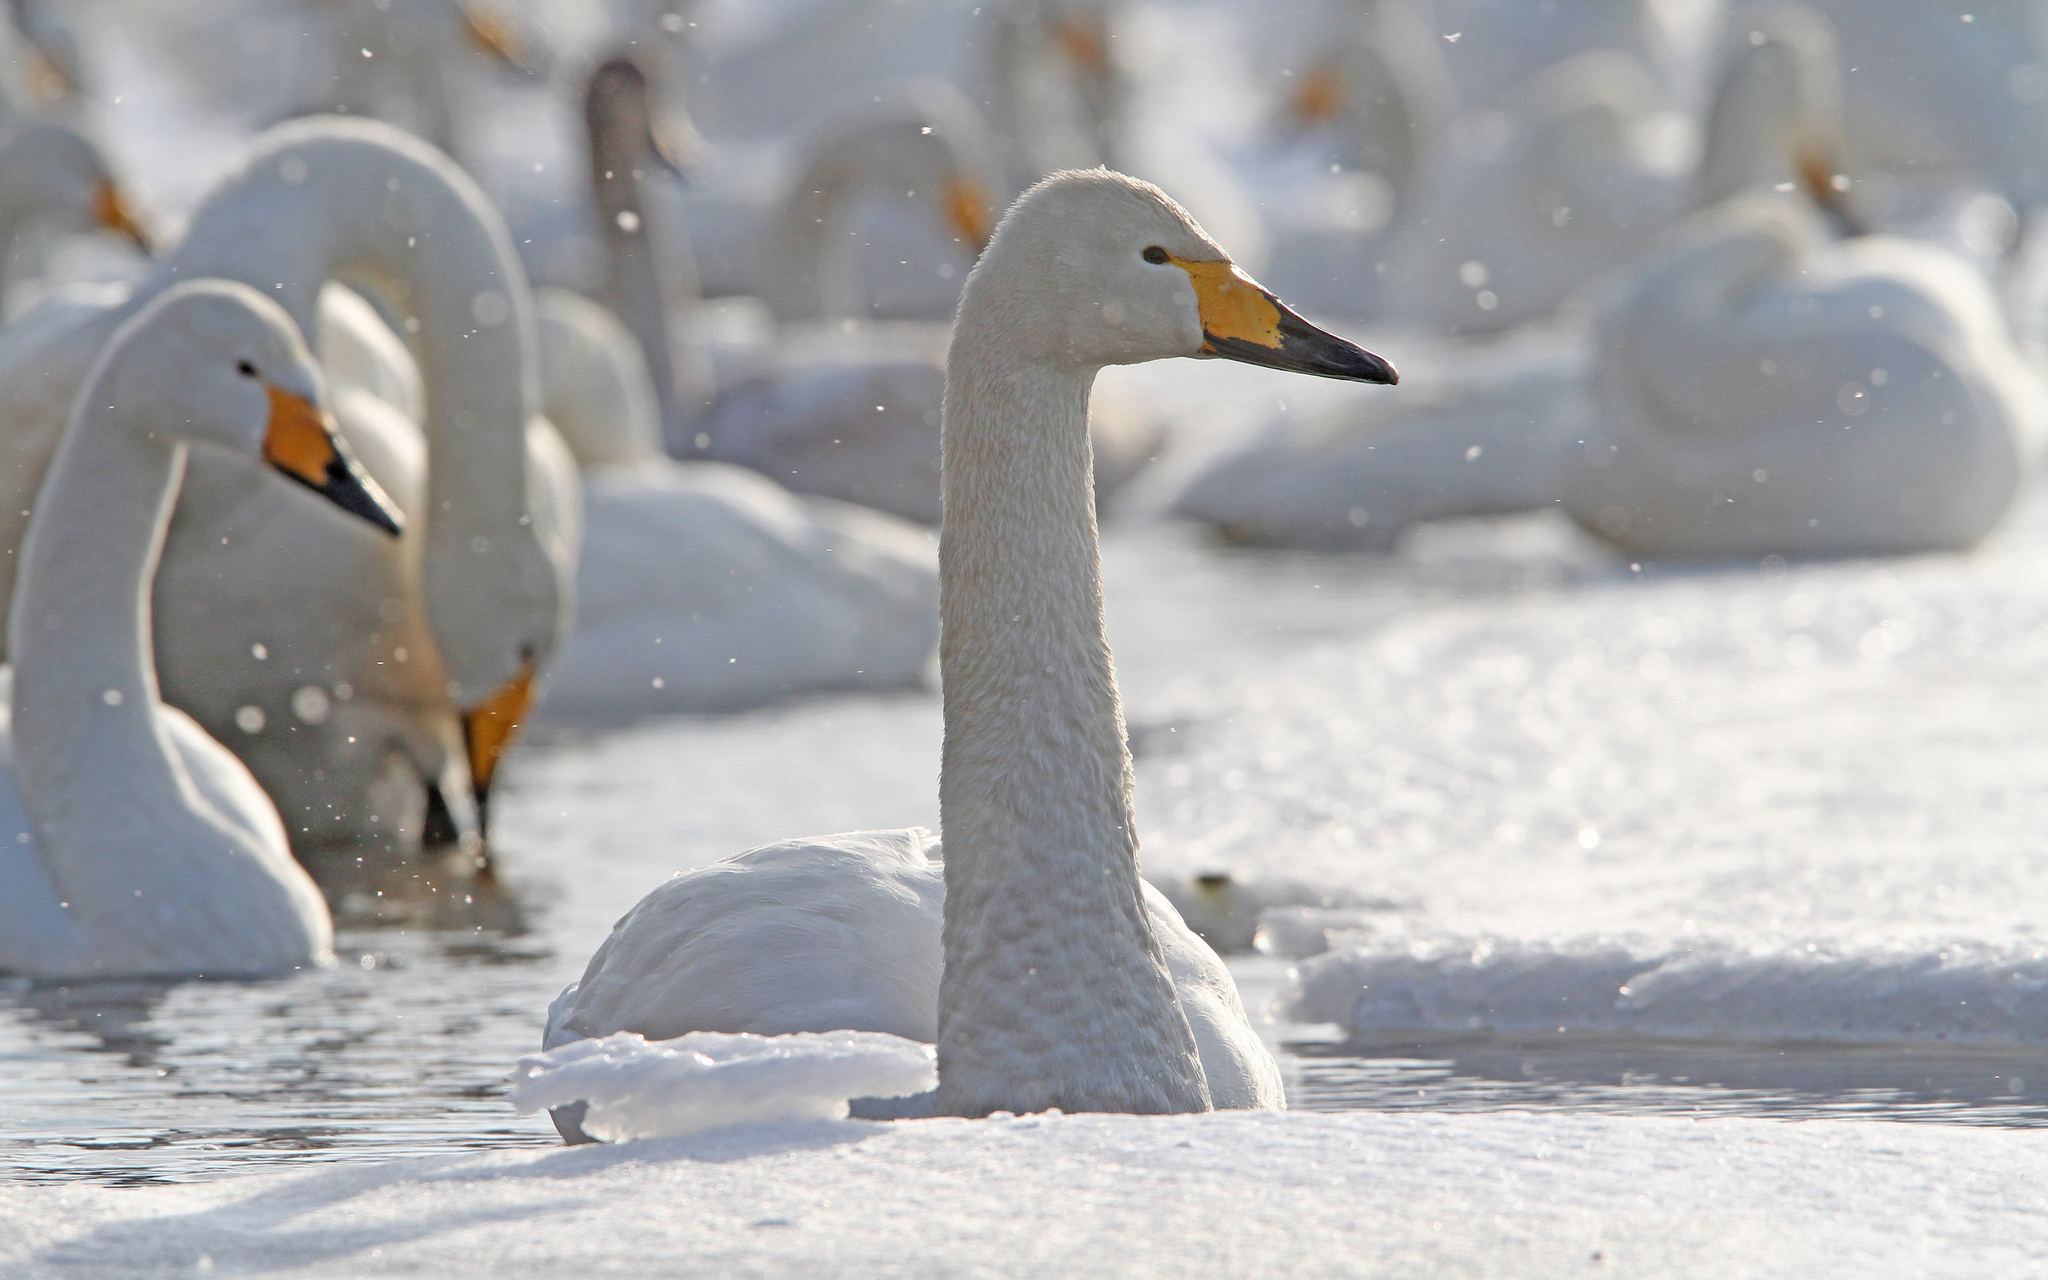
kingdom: Animalia
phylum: Chordata
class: Aves
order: Anseriformes
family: Anatidae
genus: Cygnus
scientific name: Cygnus cygnus
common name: Whooper swan
